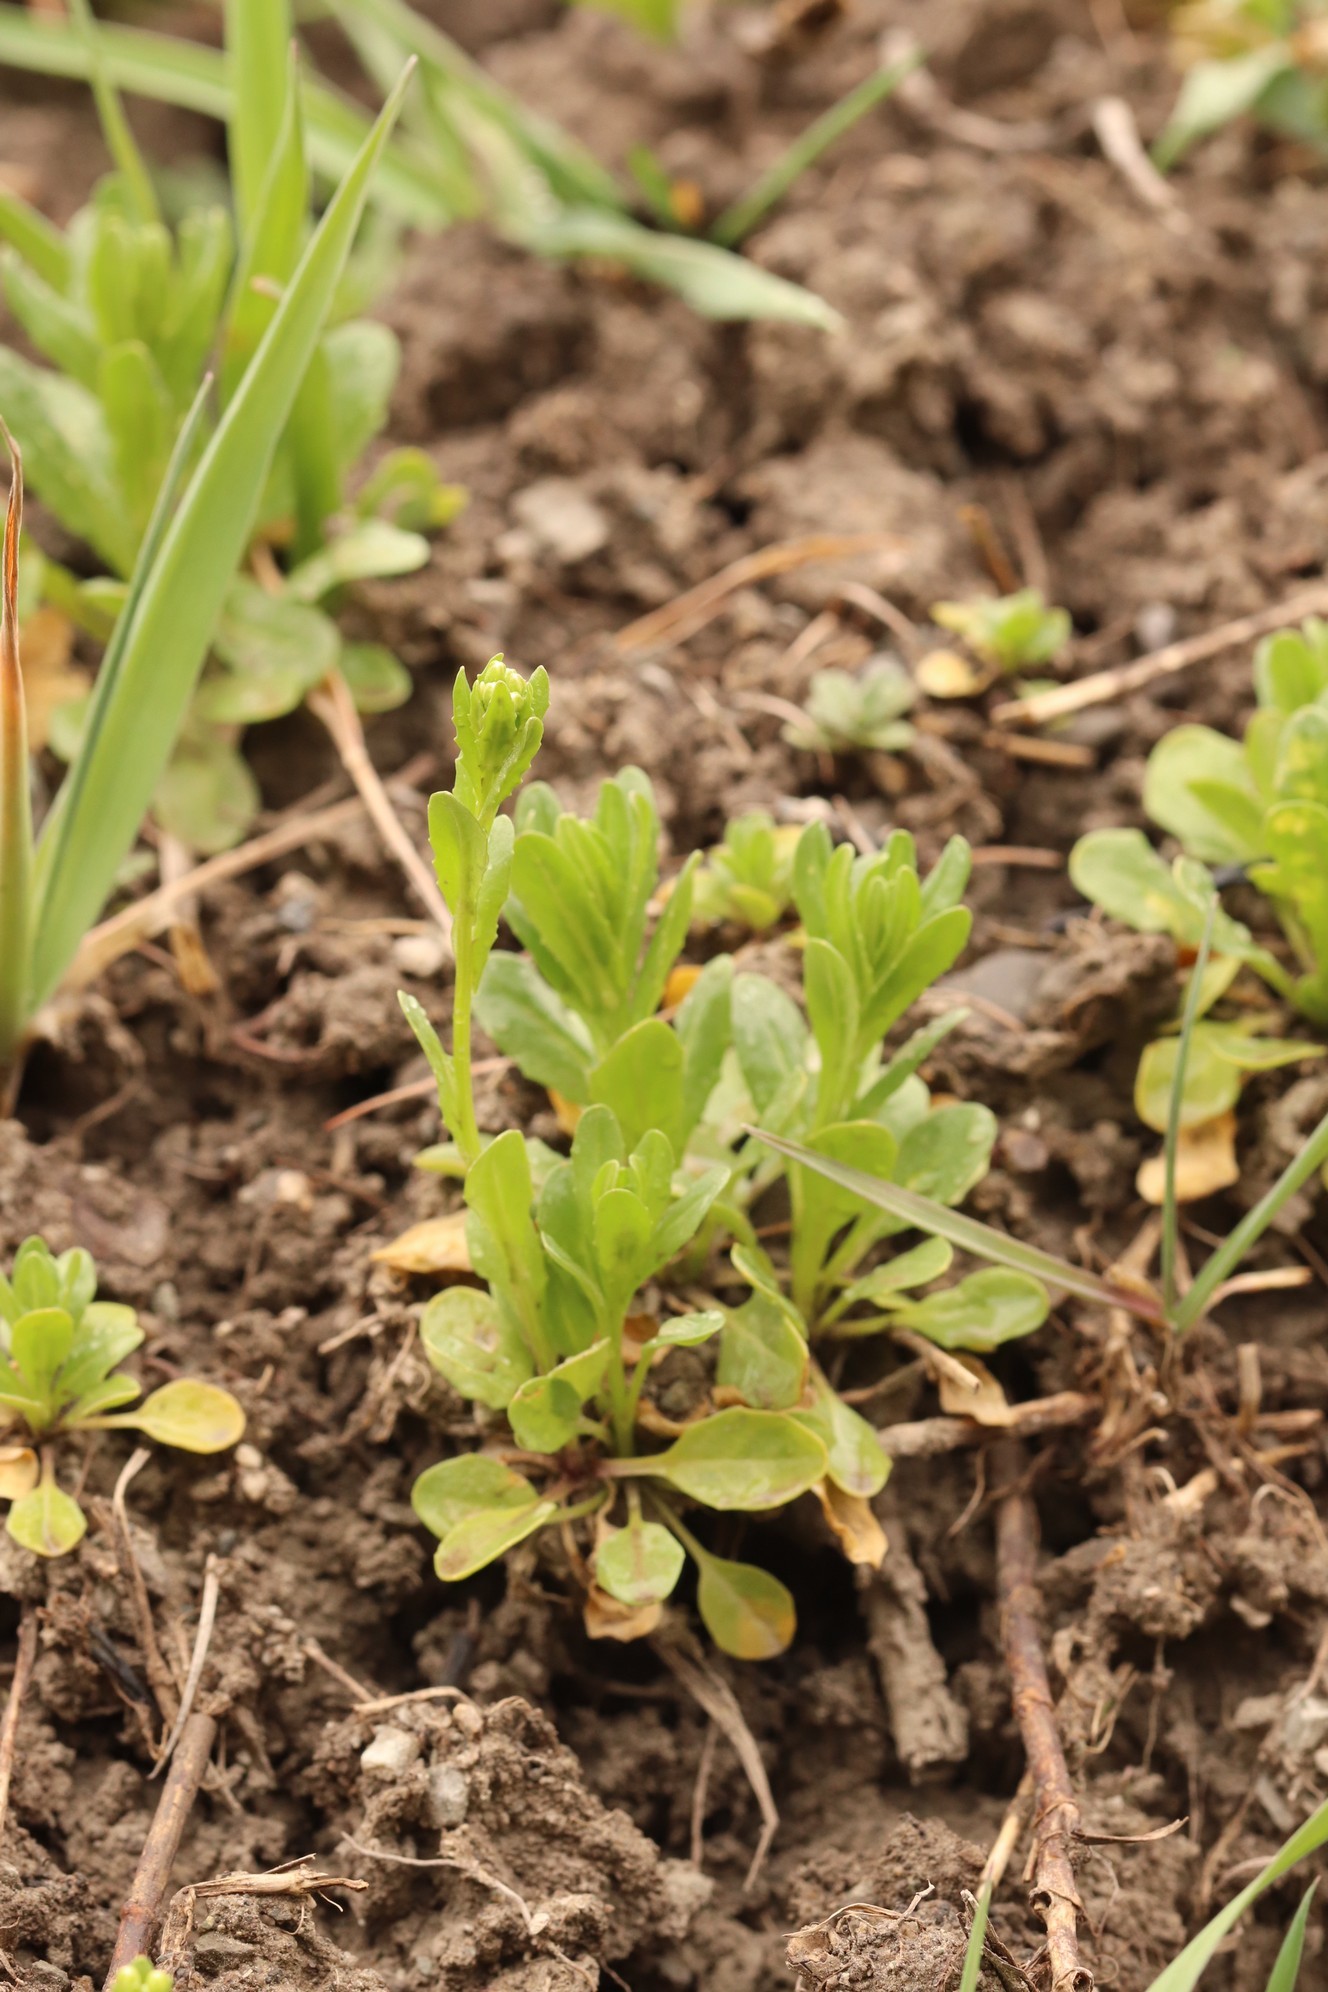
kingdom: Plantae
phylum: Tracheophyta
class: Magnoliopsida
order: Brassicales
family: Brassicaceae
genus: Thlaspi
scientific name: Thlaspi arvense
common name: Field pennycress
